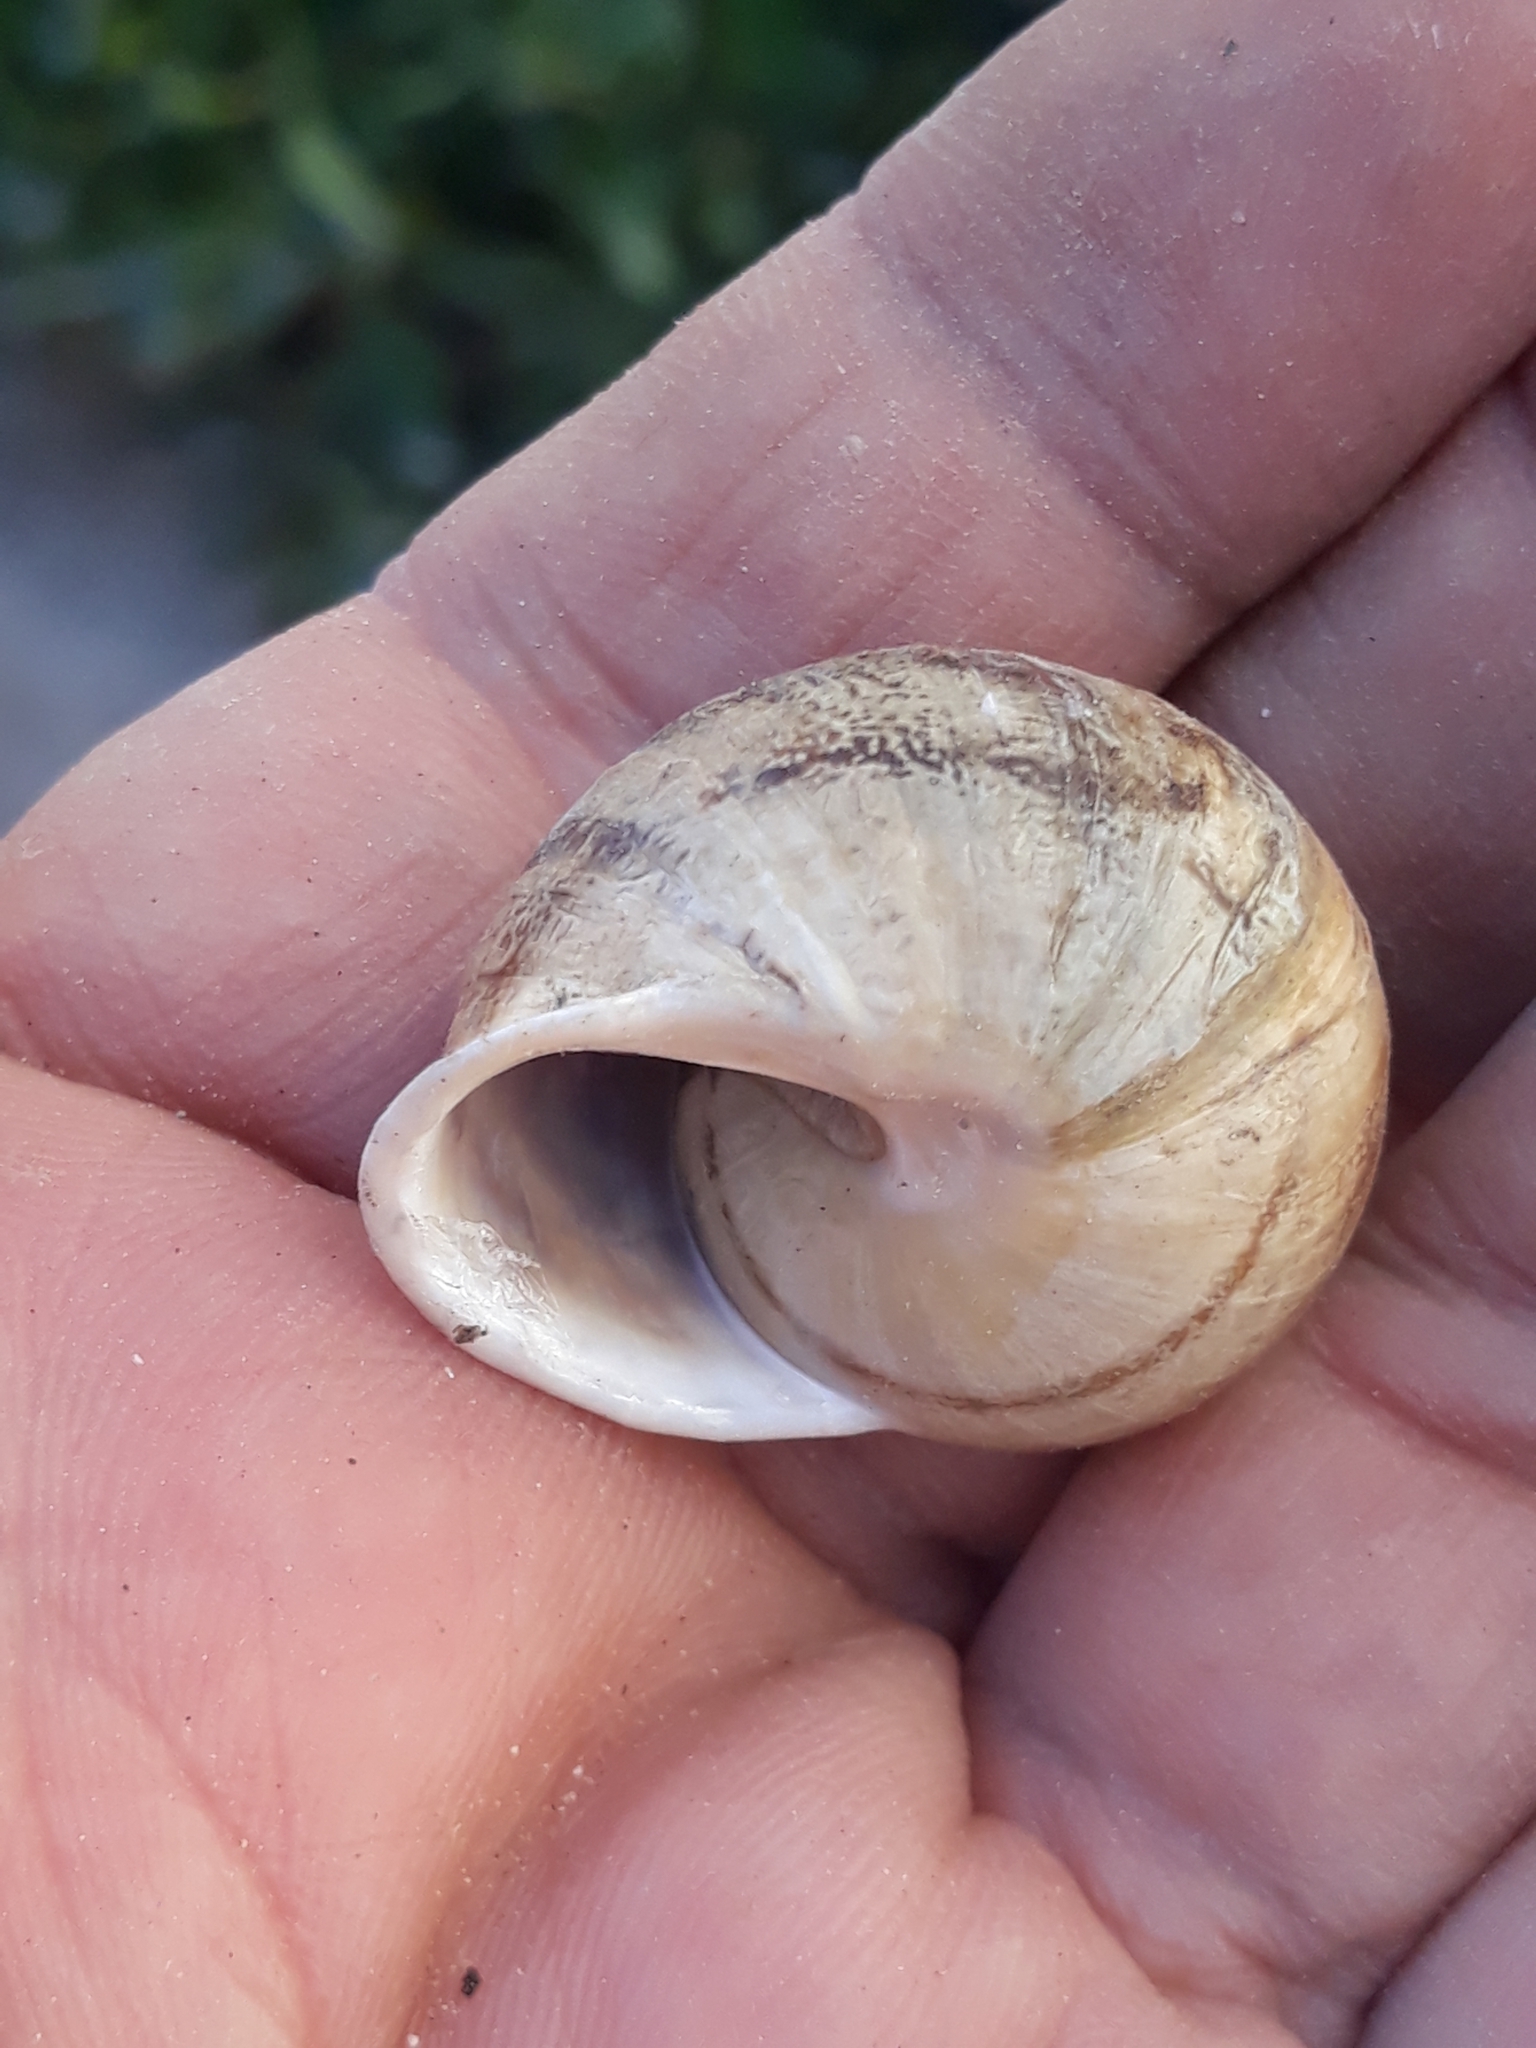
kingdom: Animalia
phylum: Mollusca
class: Gastropoda
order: Stylommatophora
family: Helicidae
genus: Eobania
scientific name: Eobania vermiculata
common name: Chocolateband snail
